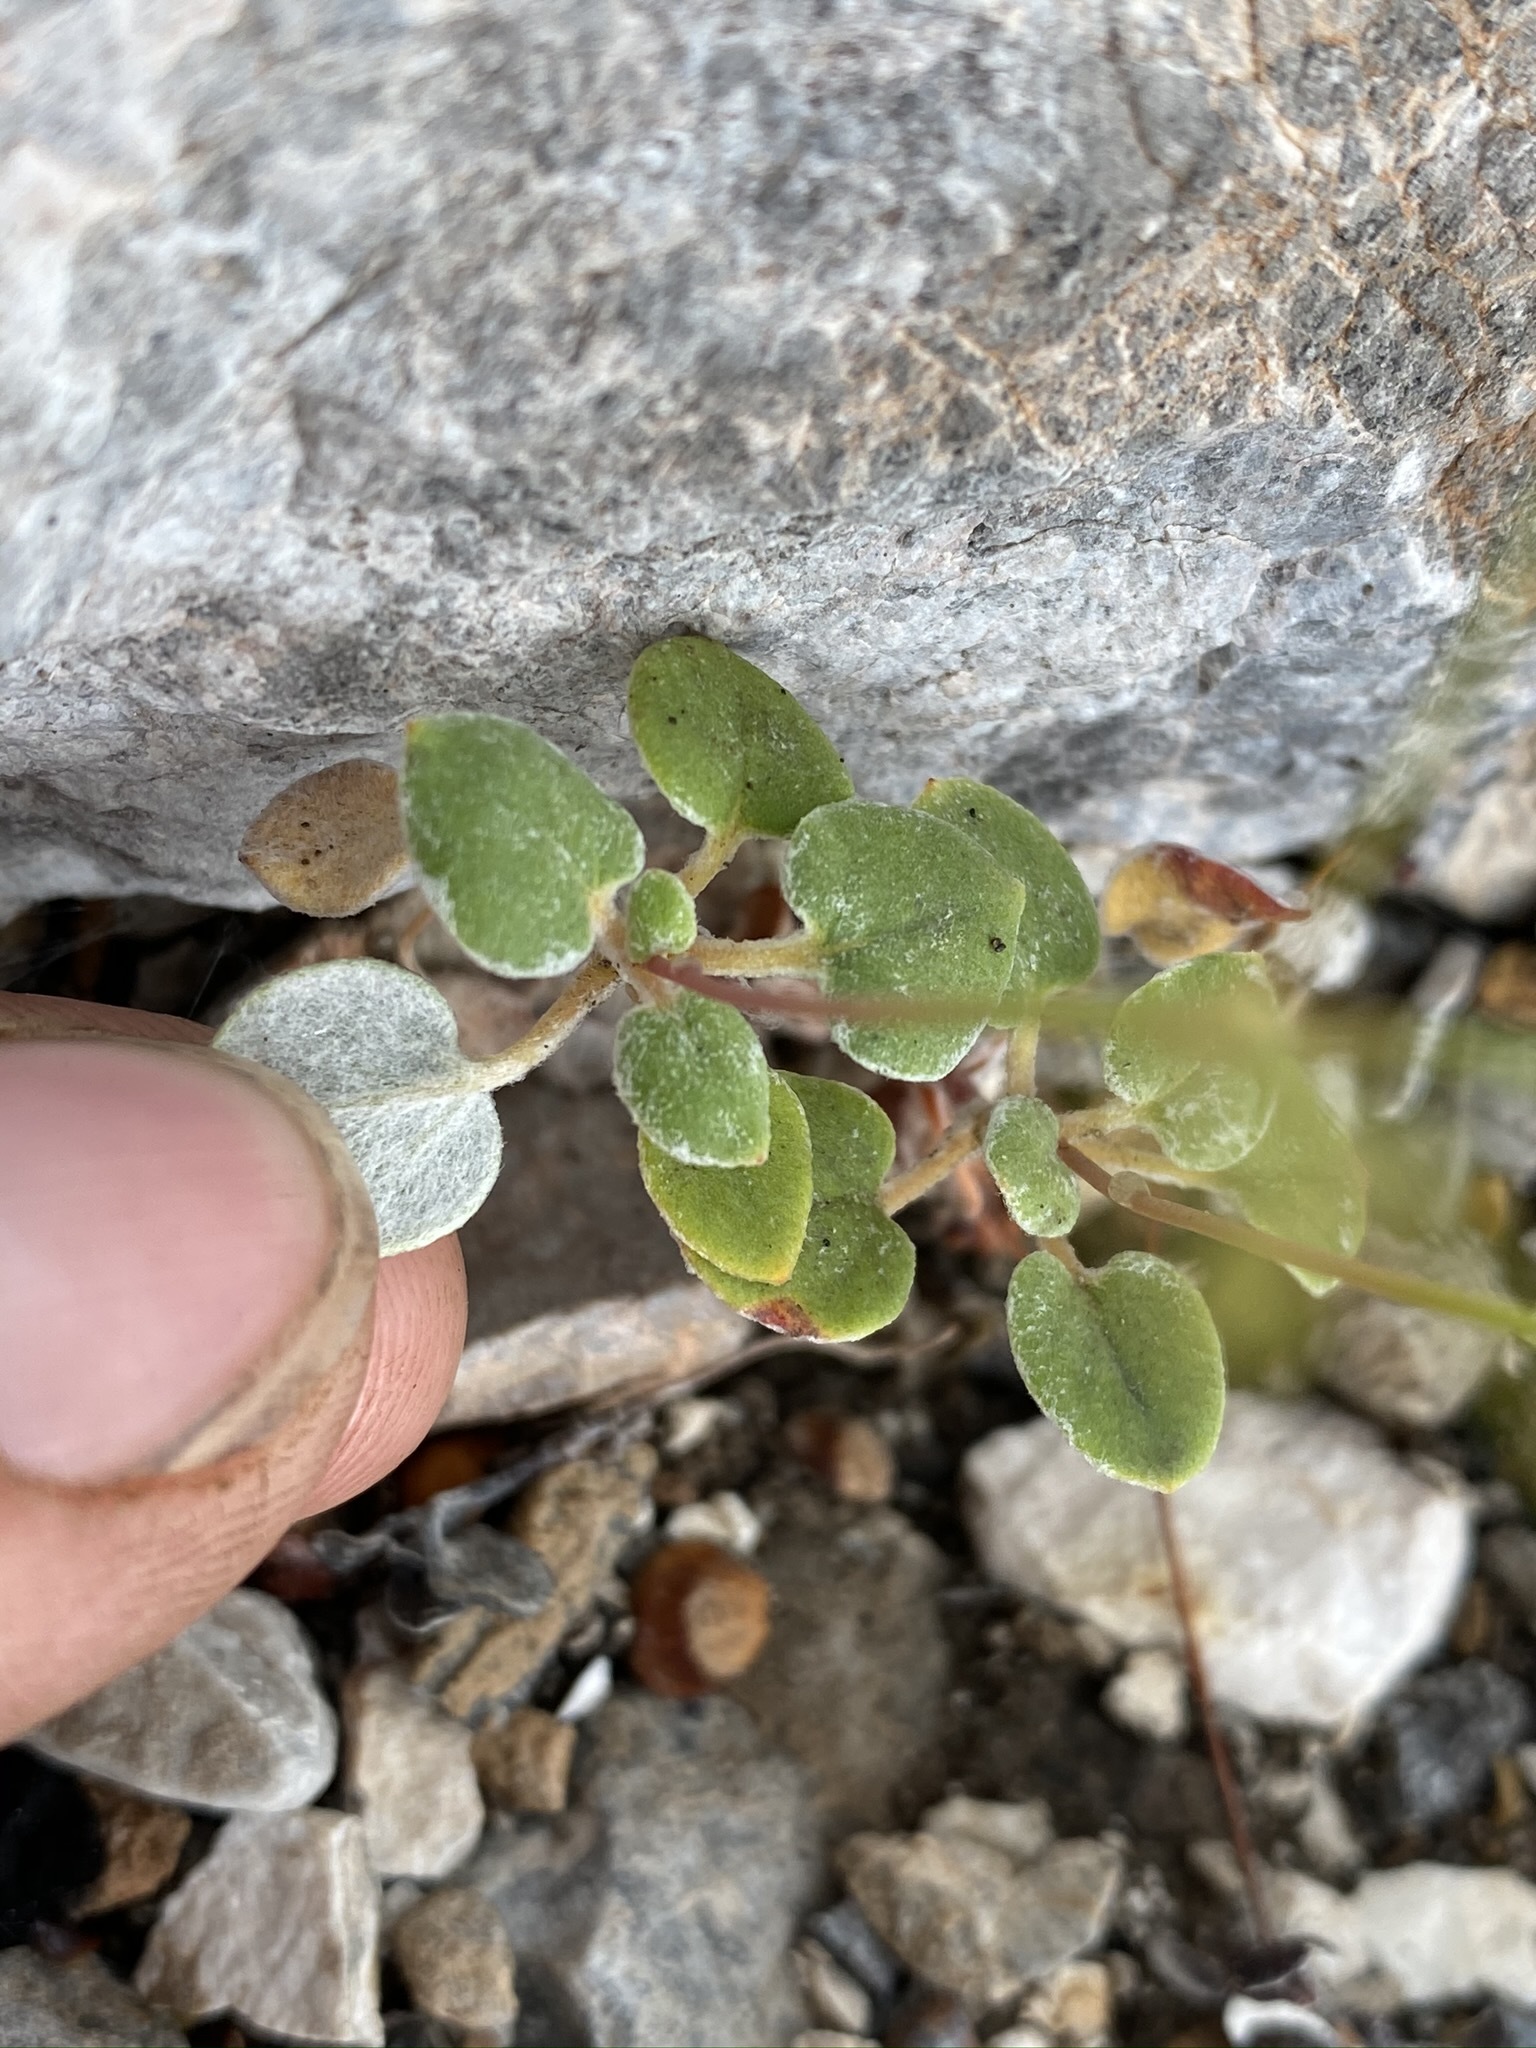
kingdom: Plantae
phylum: Tracheophyta
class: Magnoliopsida
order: Caryophyllales
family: Polygonaceae
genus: Eriogonum
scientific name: Eriogonum deflexum
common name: Skeleton-weed
